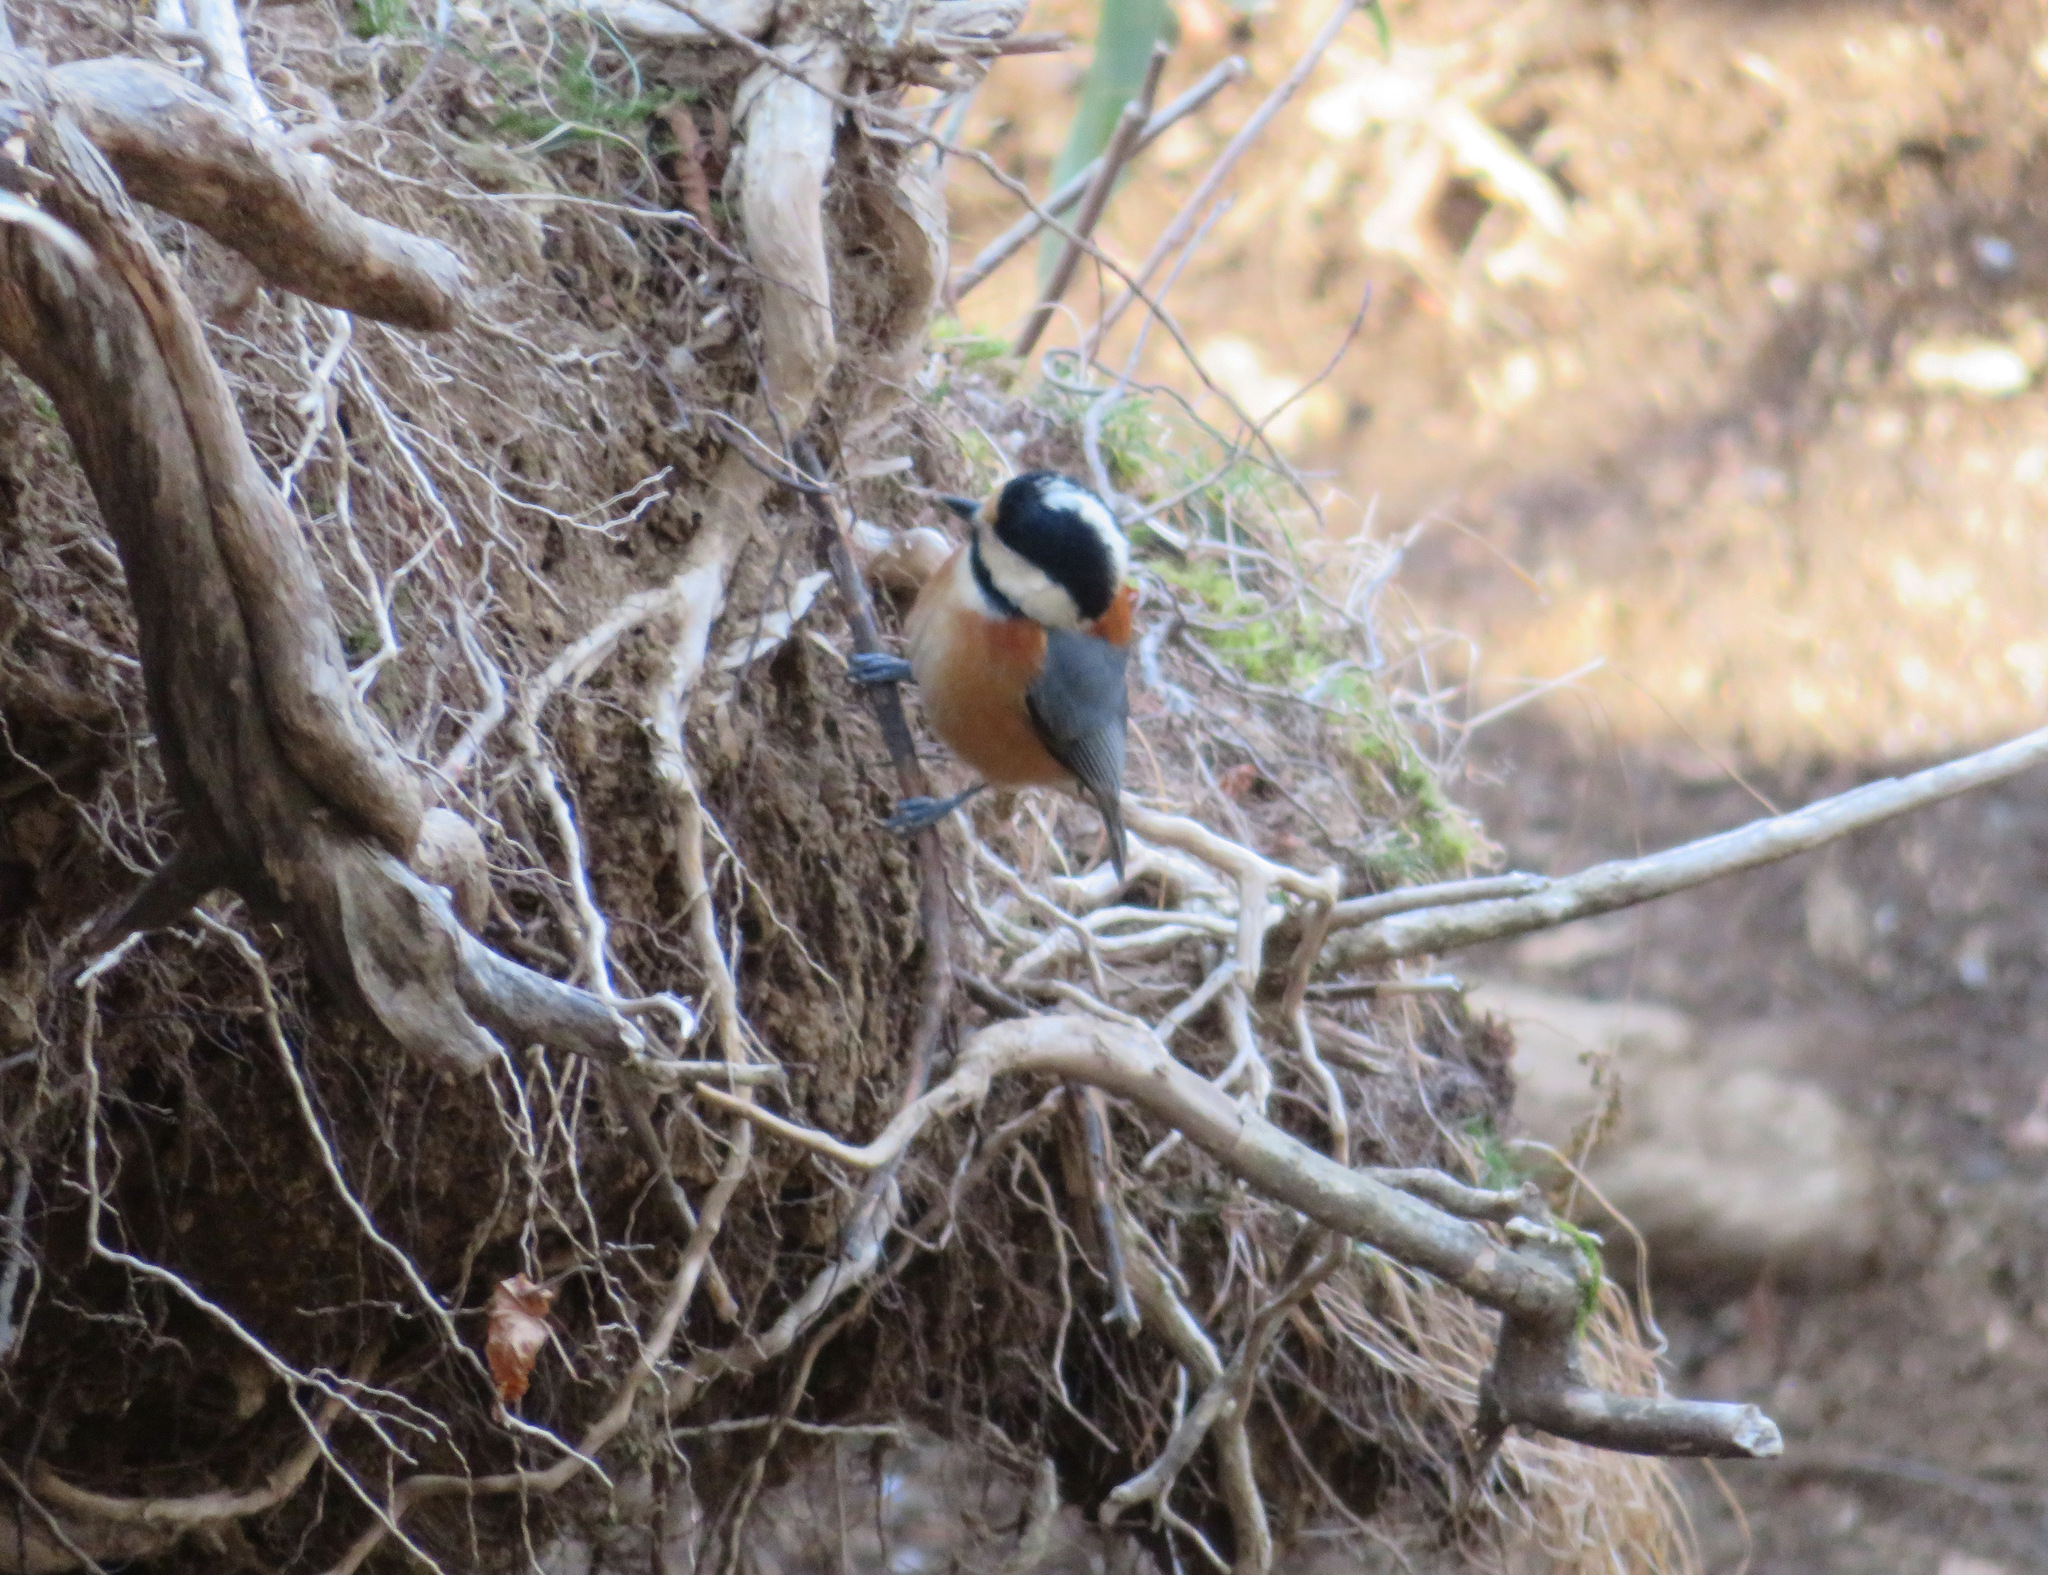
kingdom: Animalia
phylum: Chordata
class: Aves
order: Passeriformes
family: Paridae
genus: Poecile
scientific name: Poecile varius
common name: Varied tit
